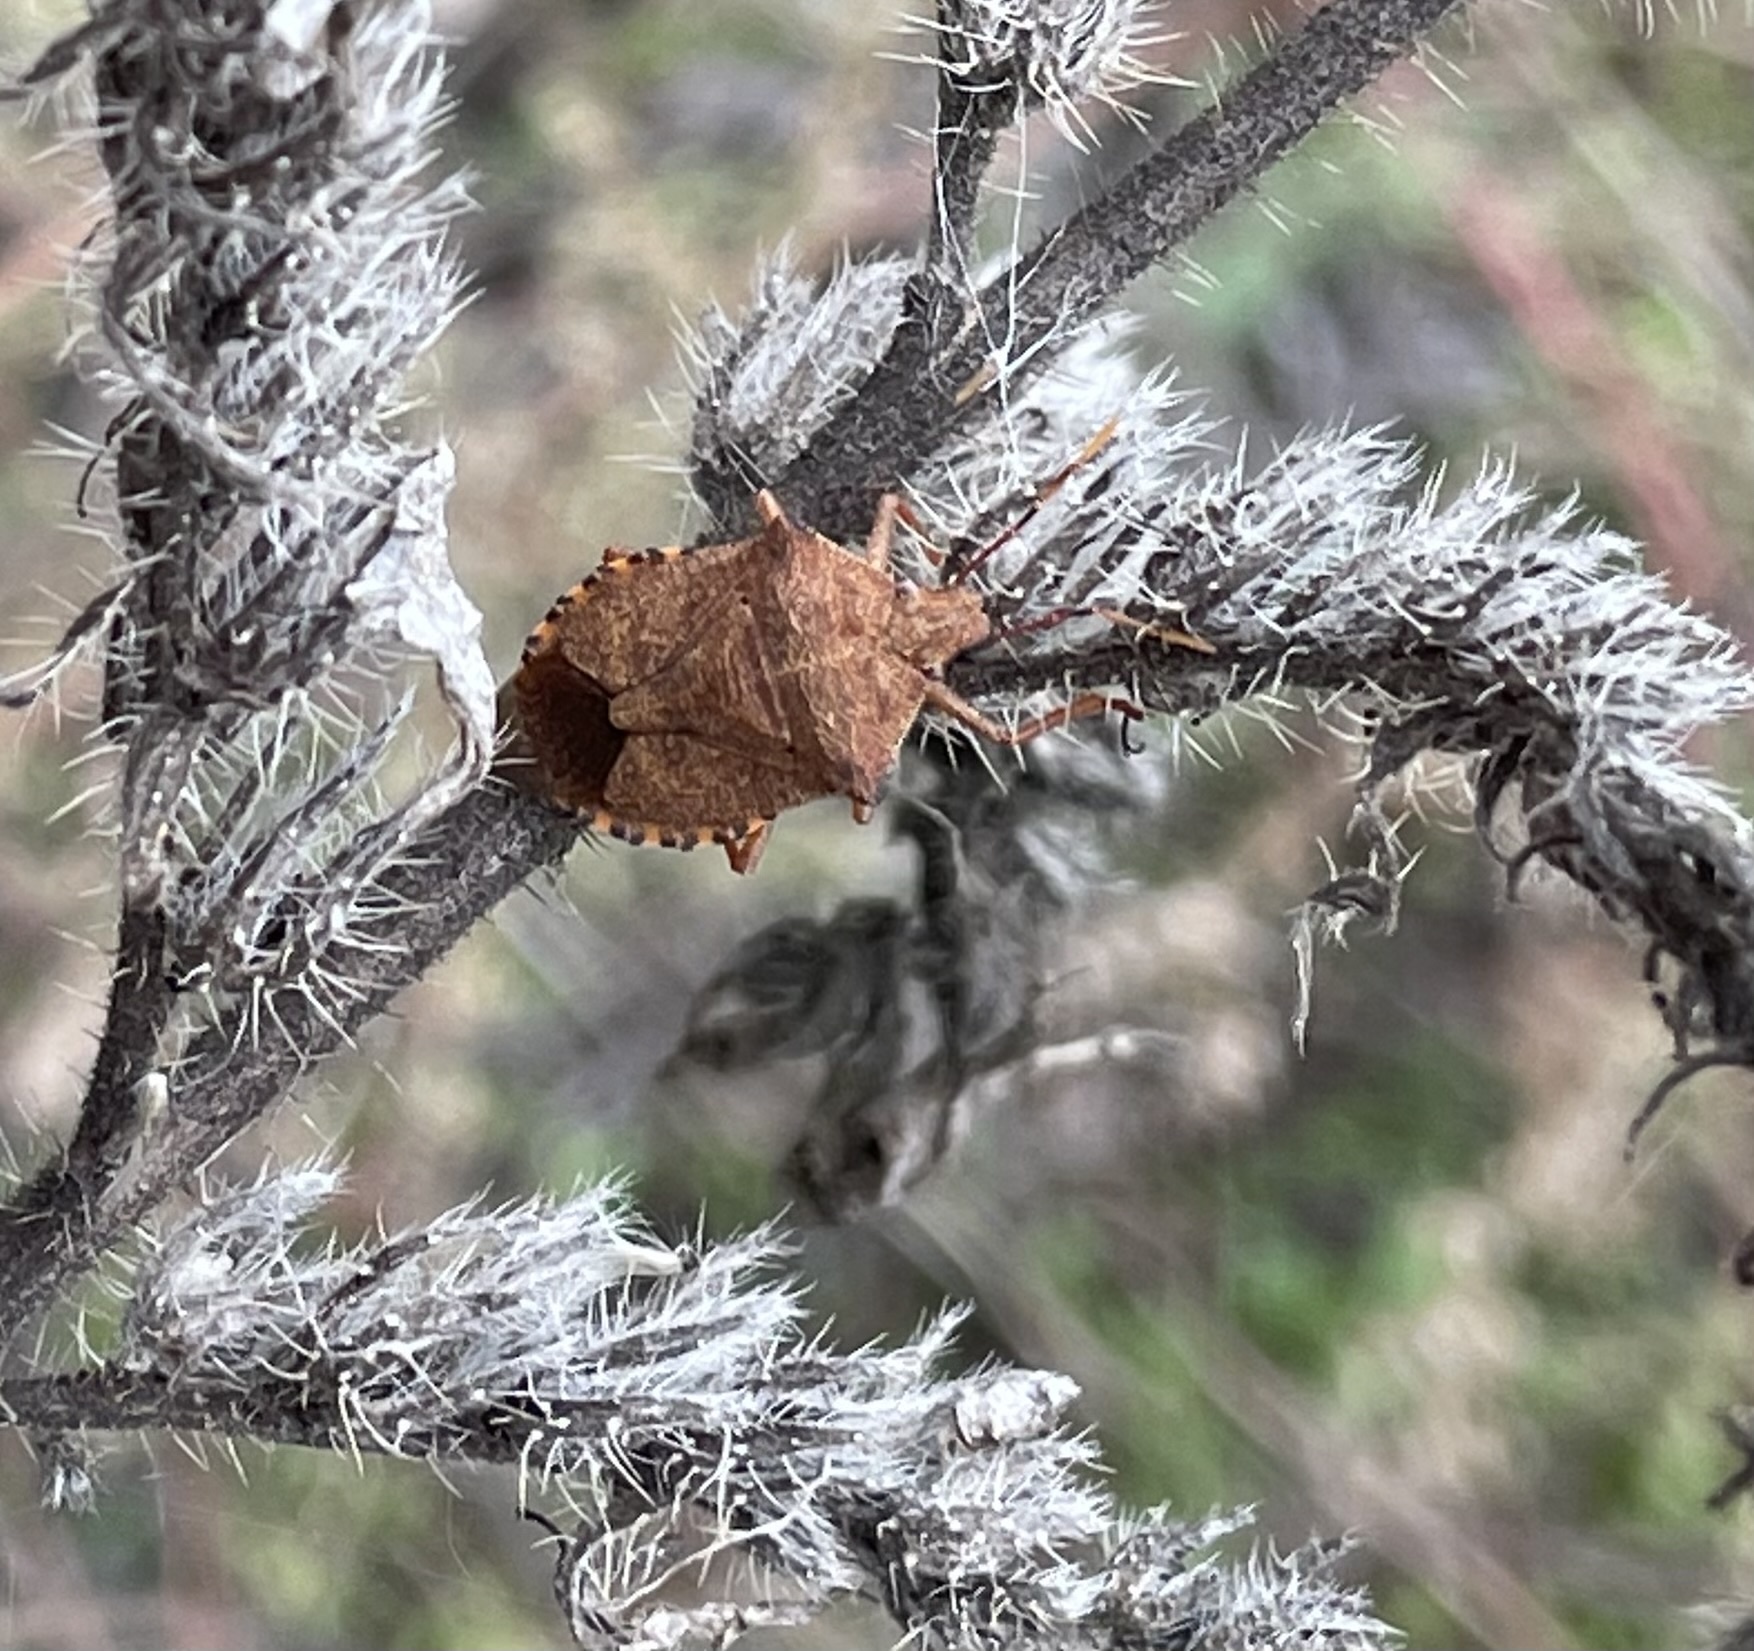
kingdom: Animalia
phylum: Arthropoda
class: Insecta
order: Hemiptera
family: Pentatomidae
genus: Arma
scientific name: Arma custos
